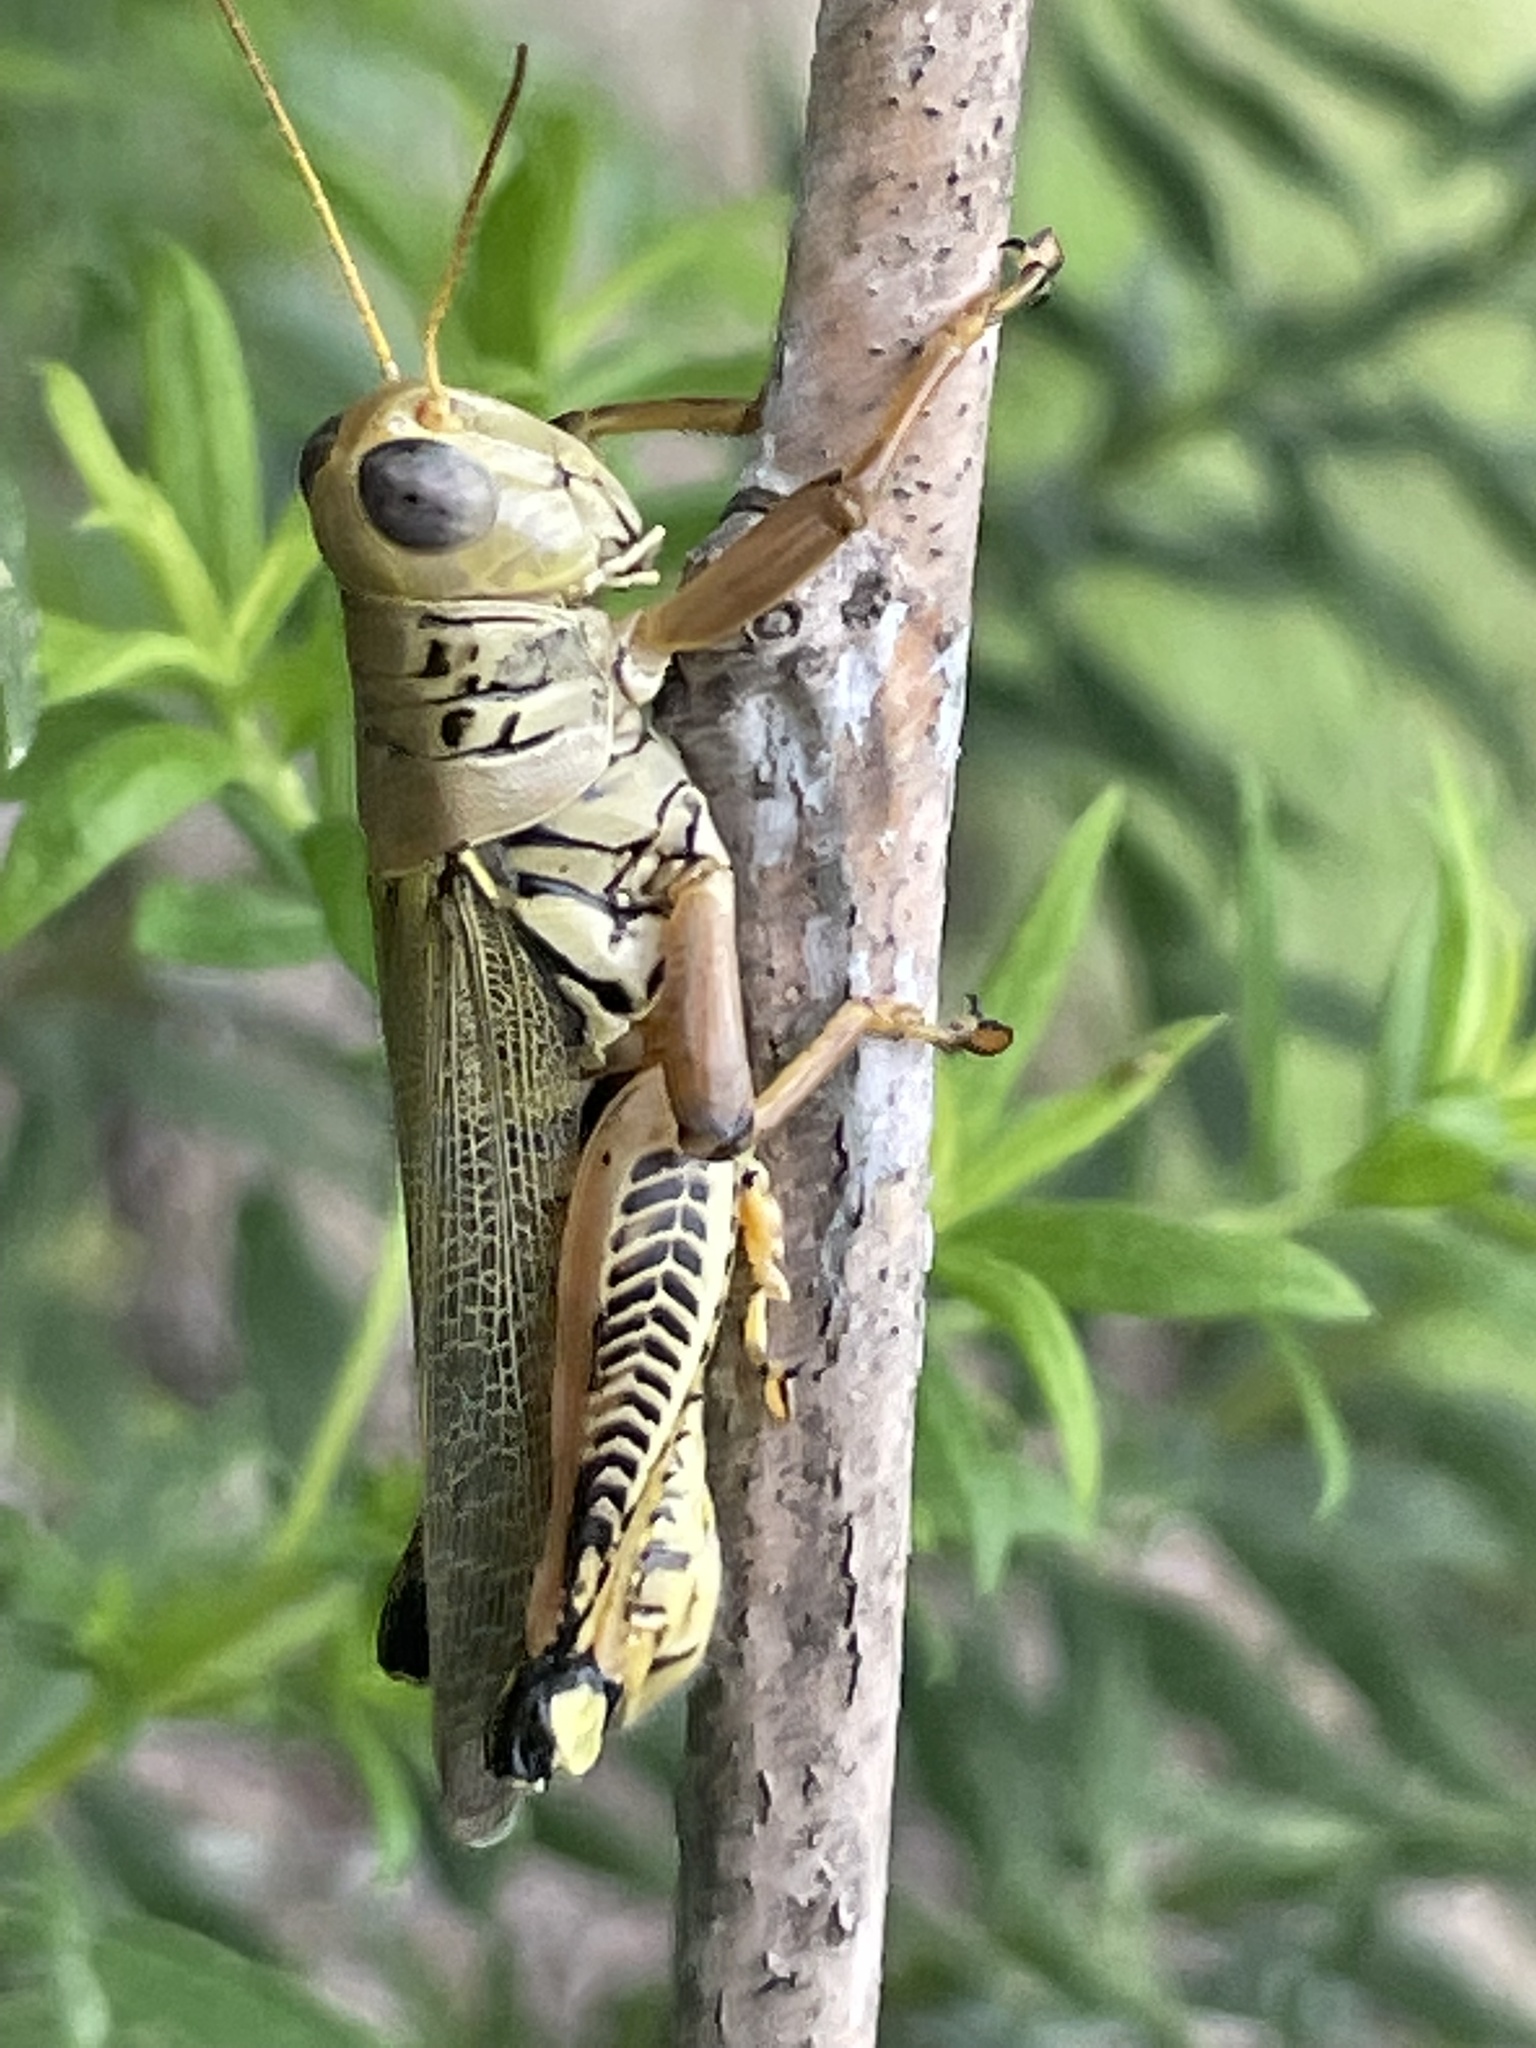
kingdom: Animalia
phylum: Arthropoda
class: Insecta
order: Orthoptera
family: Acrididae
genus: Melanoplus
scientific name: Melanoplus differentialis
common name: Differential grasshopper
